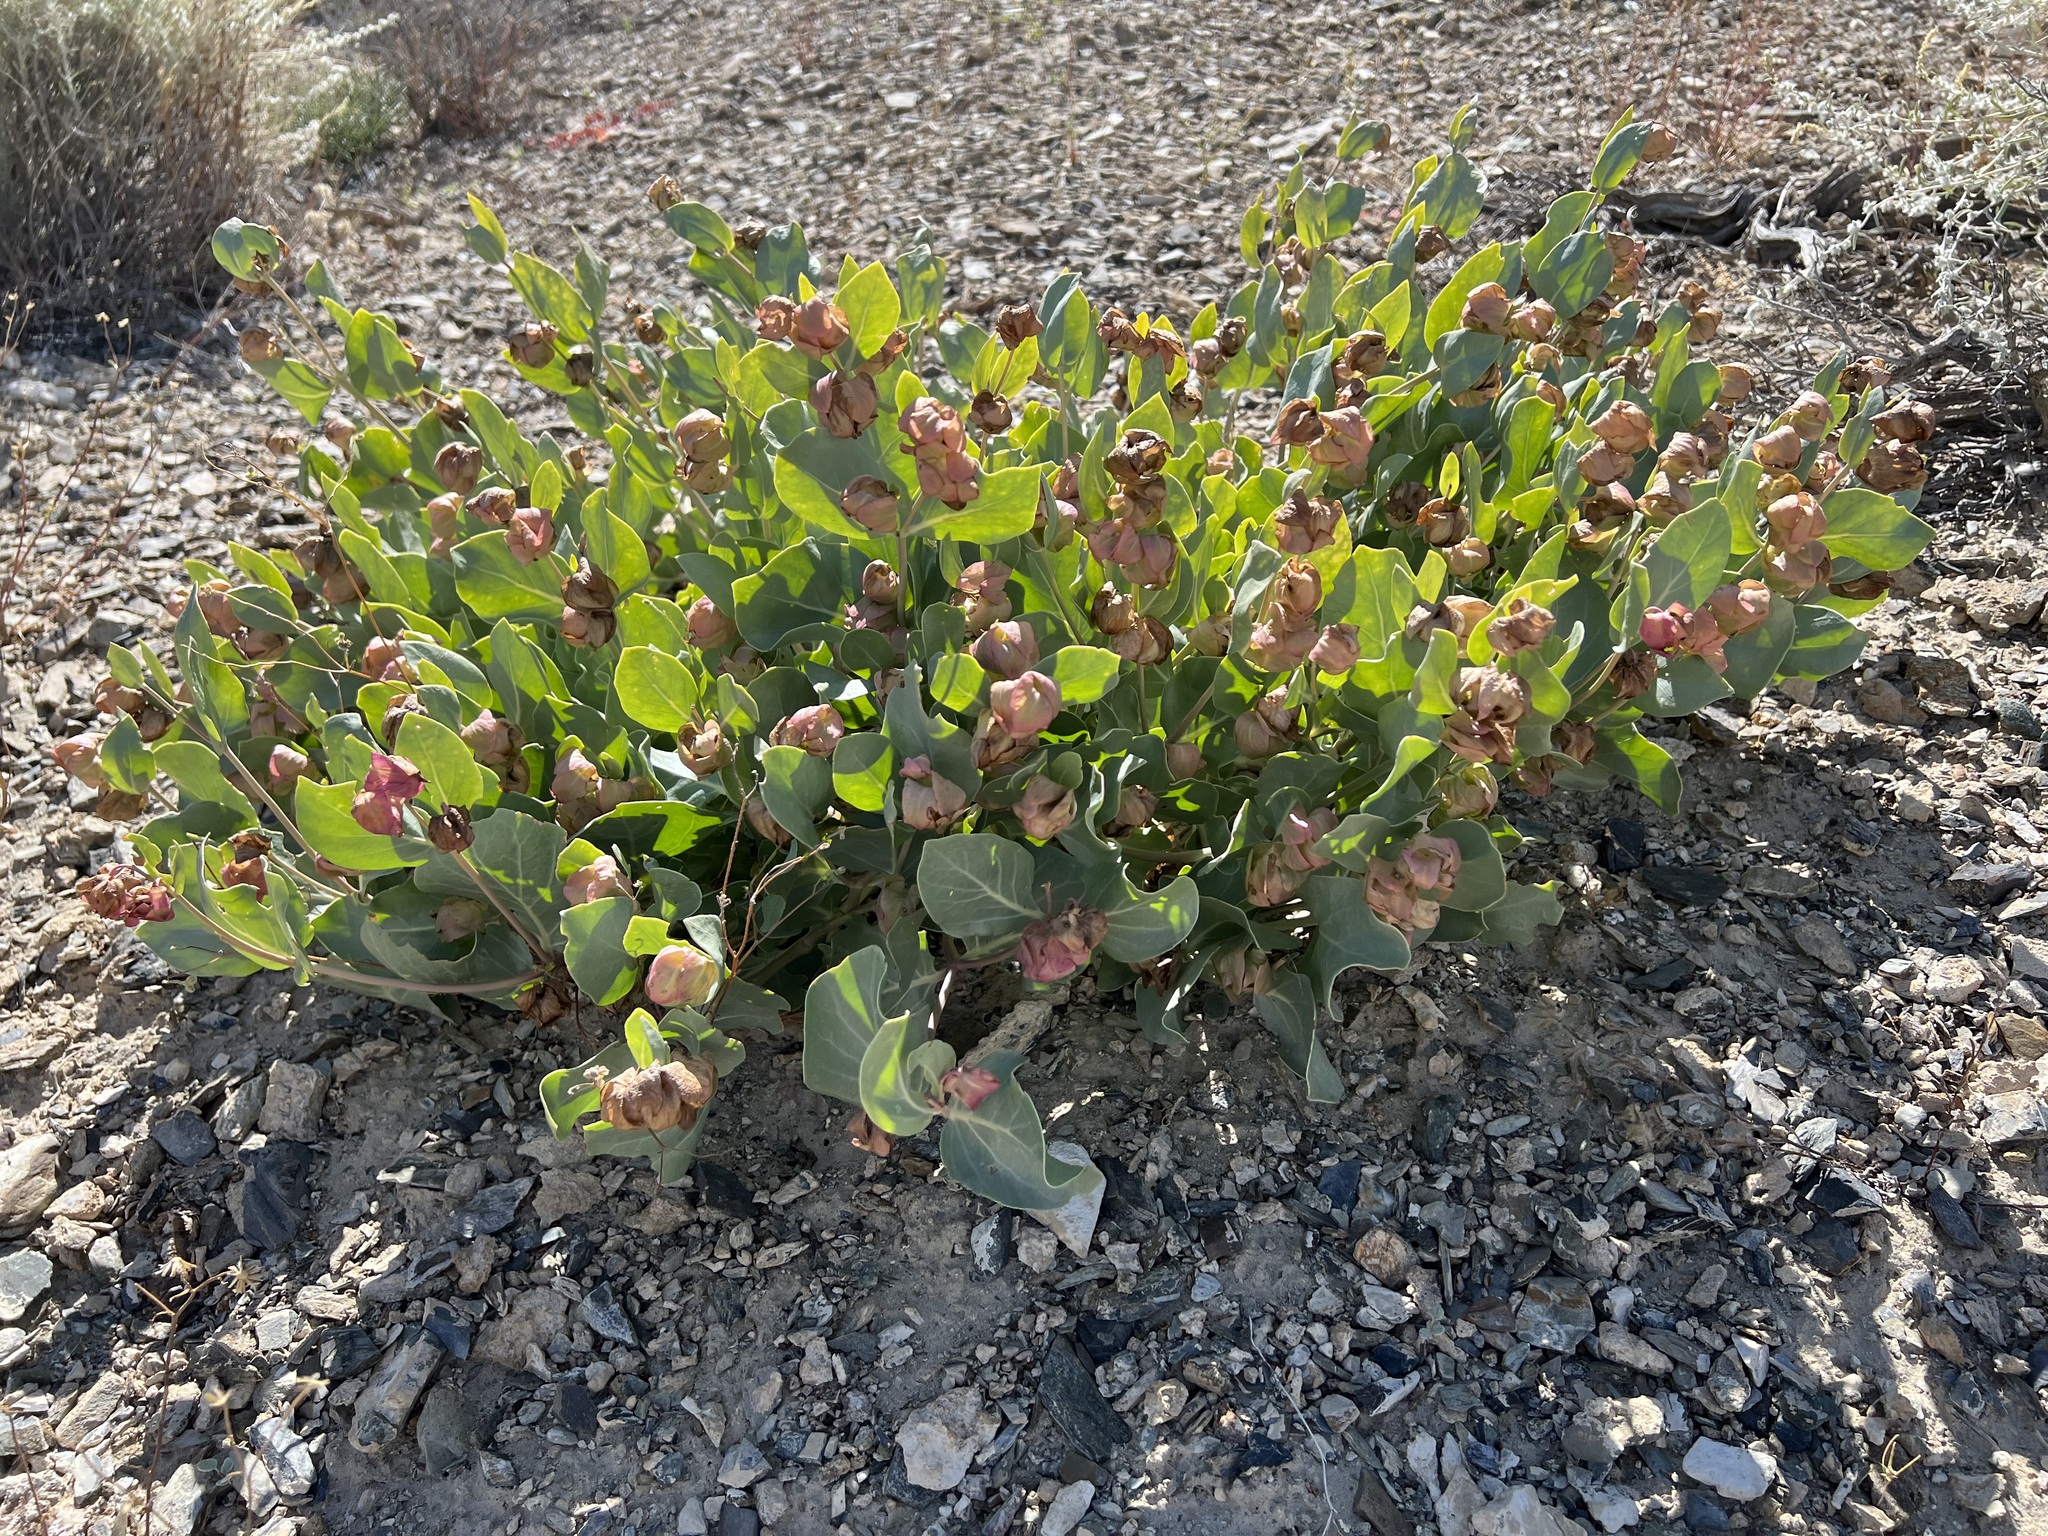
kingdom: Plantae
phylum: Tracheophyta
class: Magnoliopsida
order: Caryophyllales
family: Nyctaginaceae
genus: Mirabilis
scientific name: Mirabilis alipes
